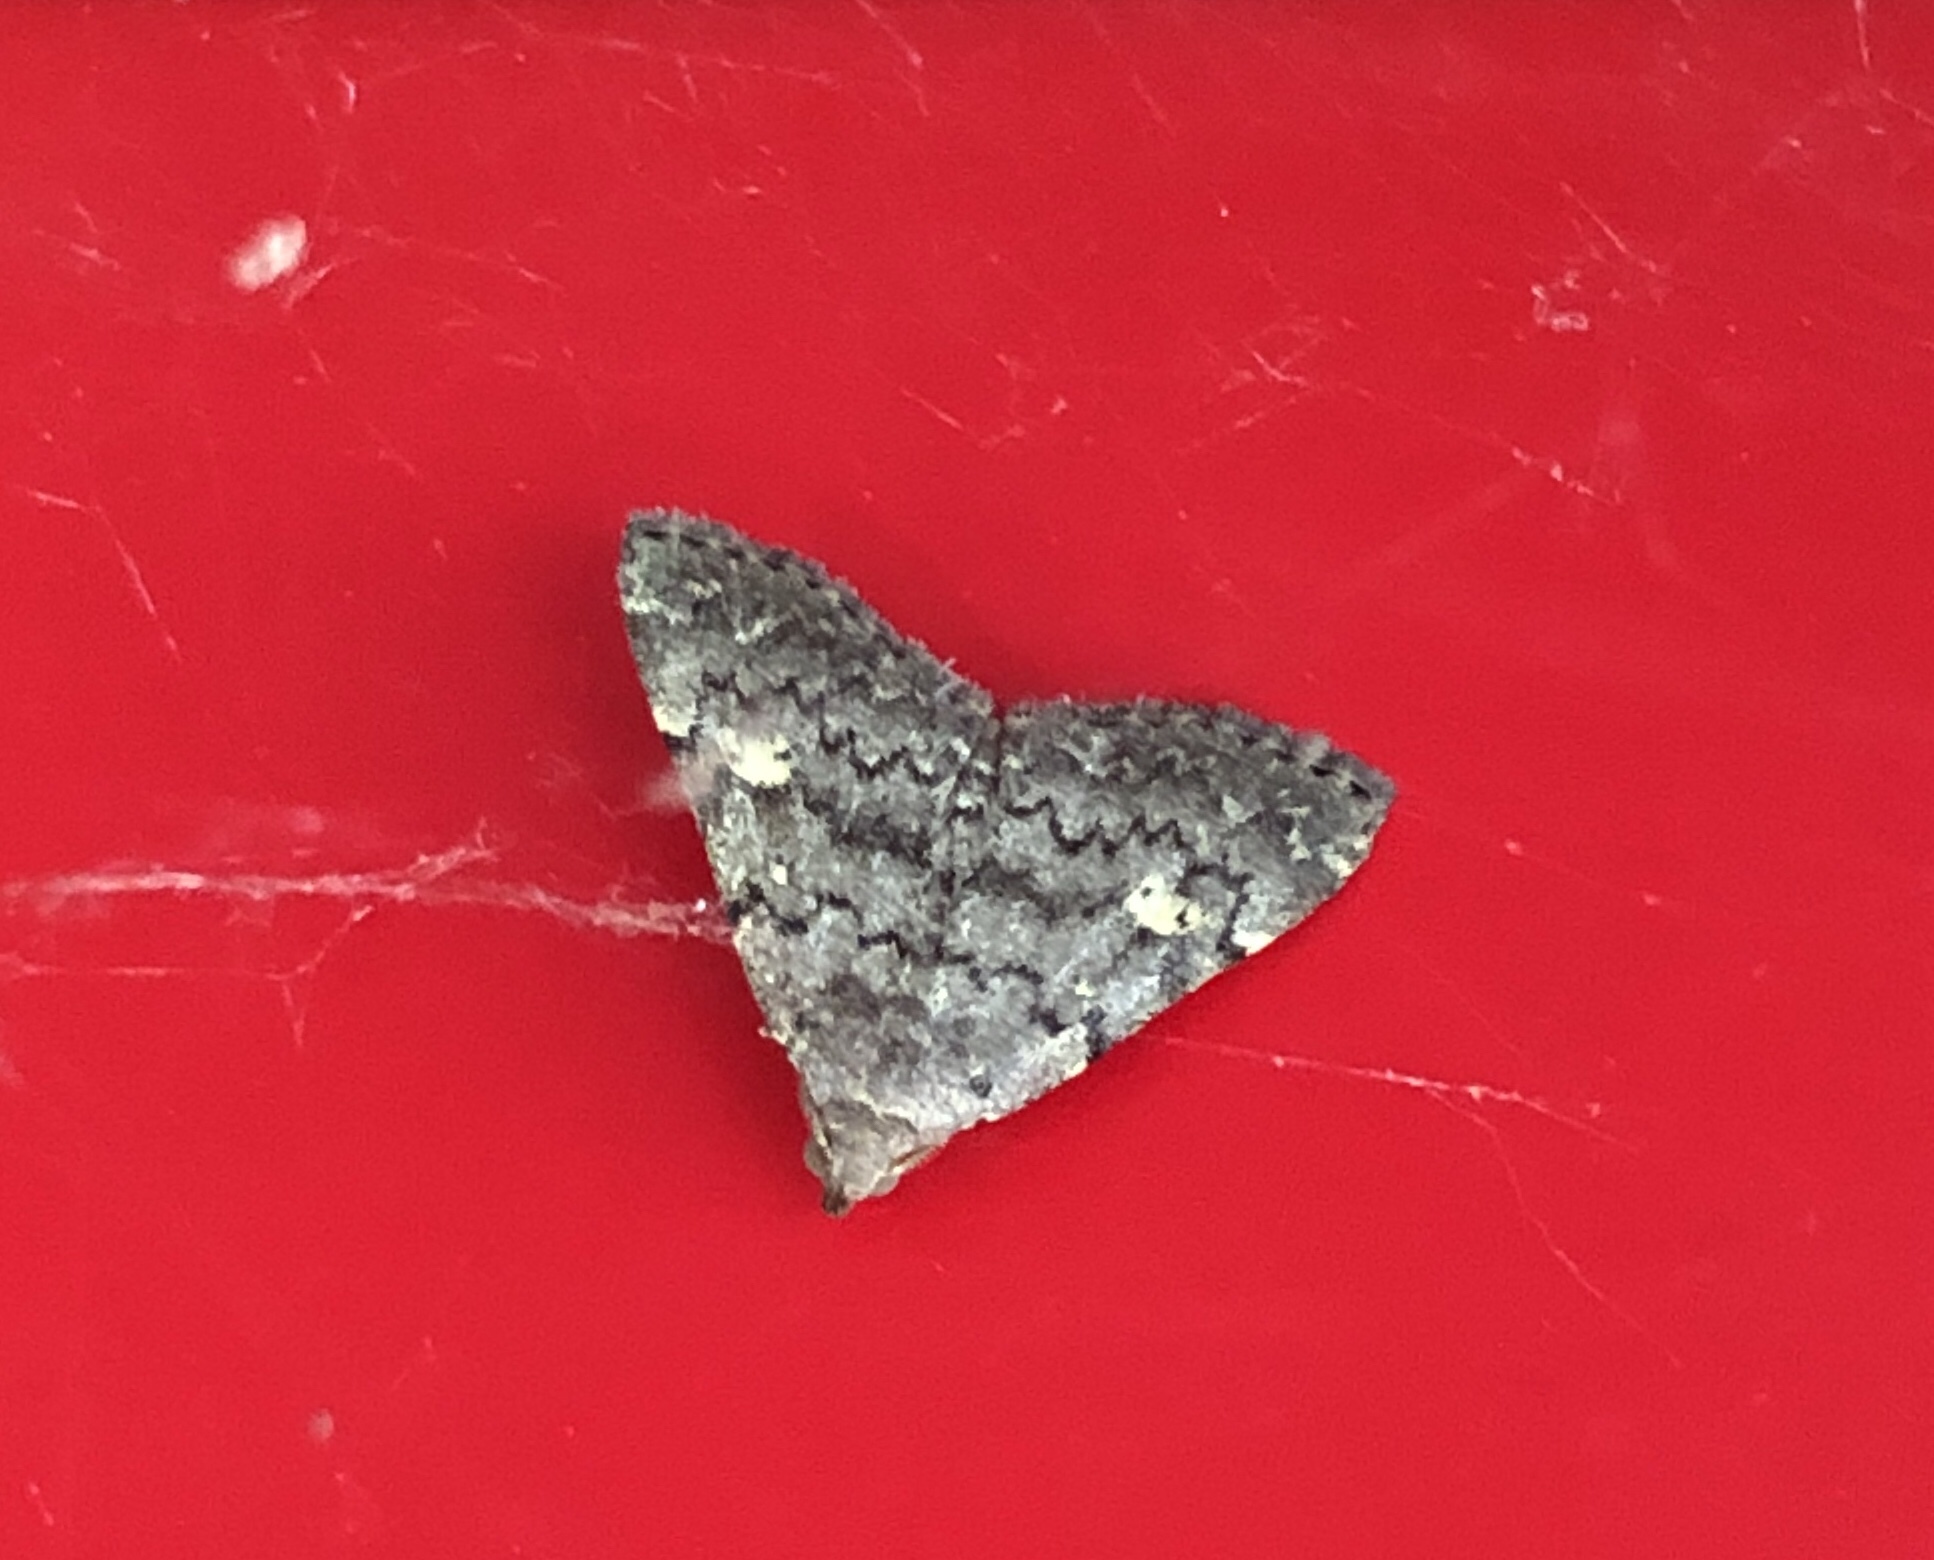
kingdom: Animalia
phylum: Arthropoda
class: Insecta
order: Lepidoptera
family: Erebidae
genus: Idia
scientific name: Idia aemula
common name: Common idia moth
